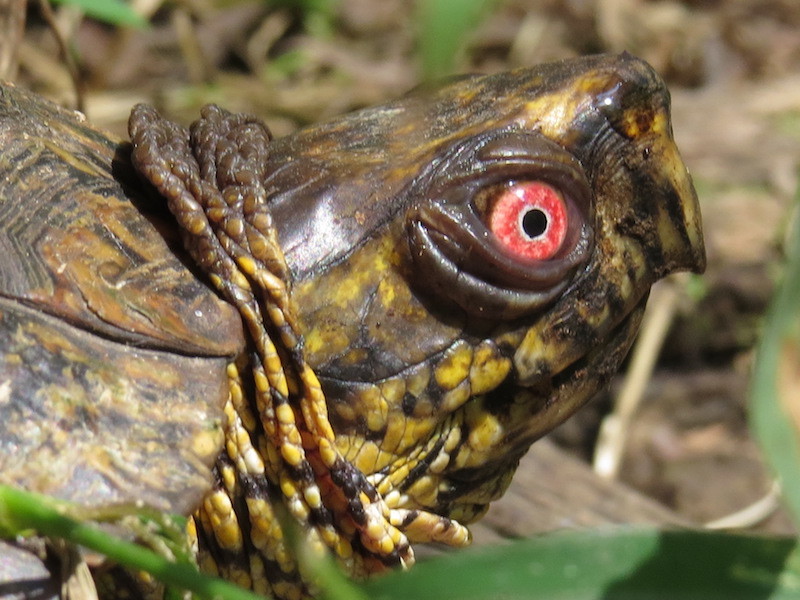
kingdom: Animalia
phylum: Chordata
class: Testudines
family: Emydidae
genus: Terrapene
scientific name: Terrapene carolina
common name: Common box turtle
